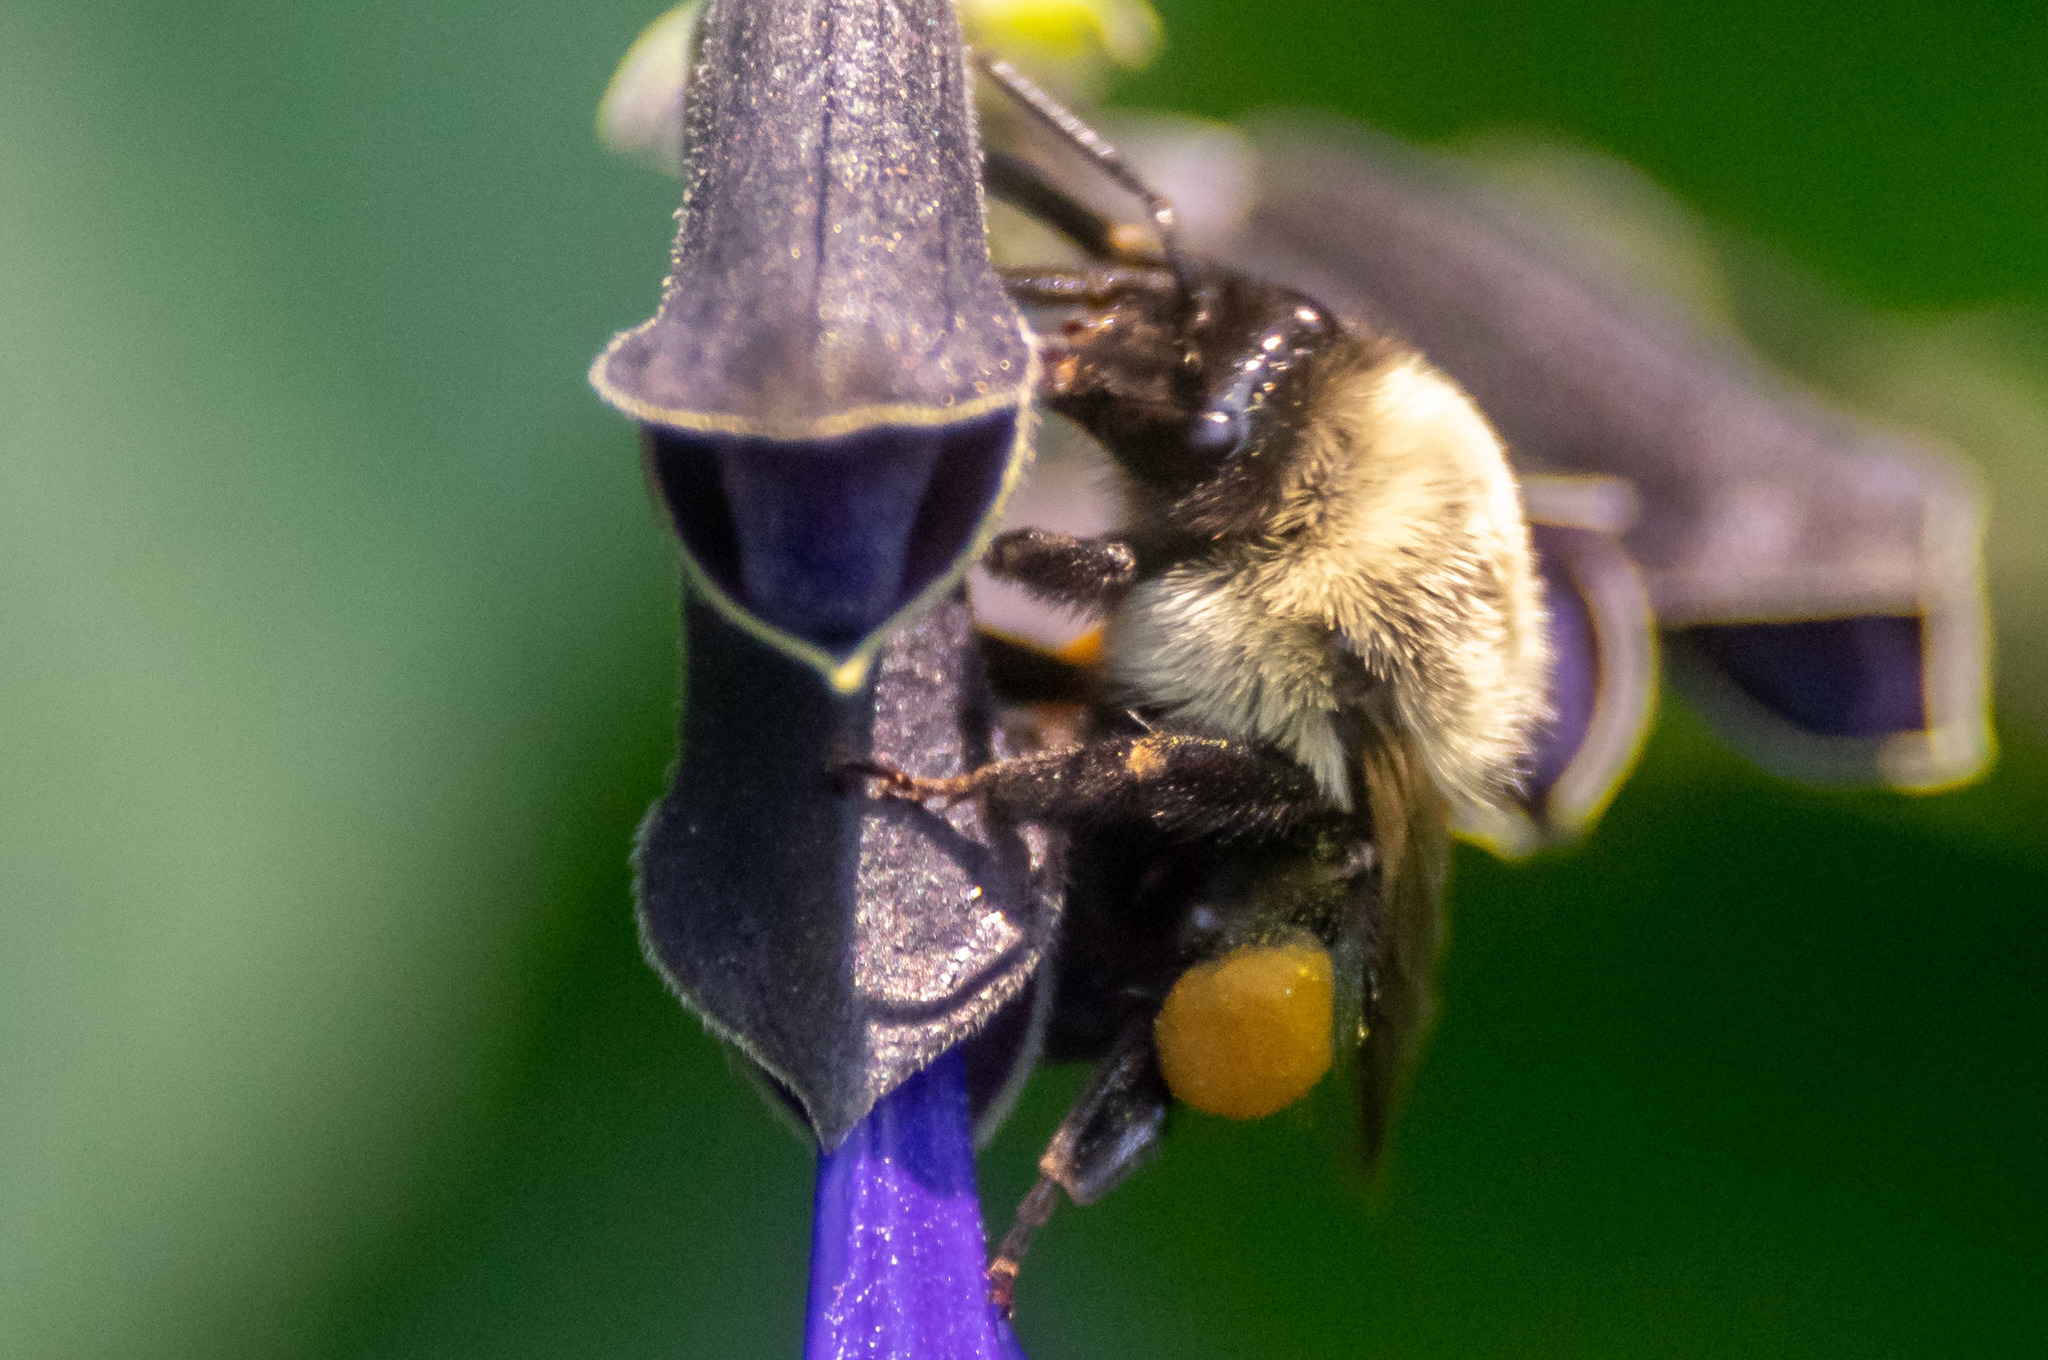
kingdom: Animalia
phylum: Arthropoda
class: Insecta
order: Hymenoptera
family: Apidae
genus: Bombus
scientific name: Bombus impatiens
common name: Common eastern bumble bee
